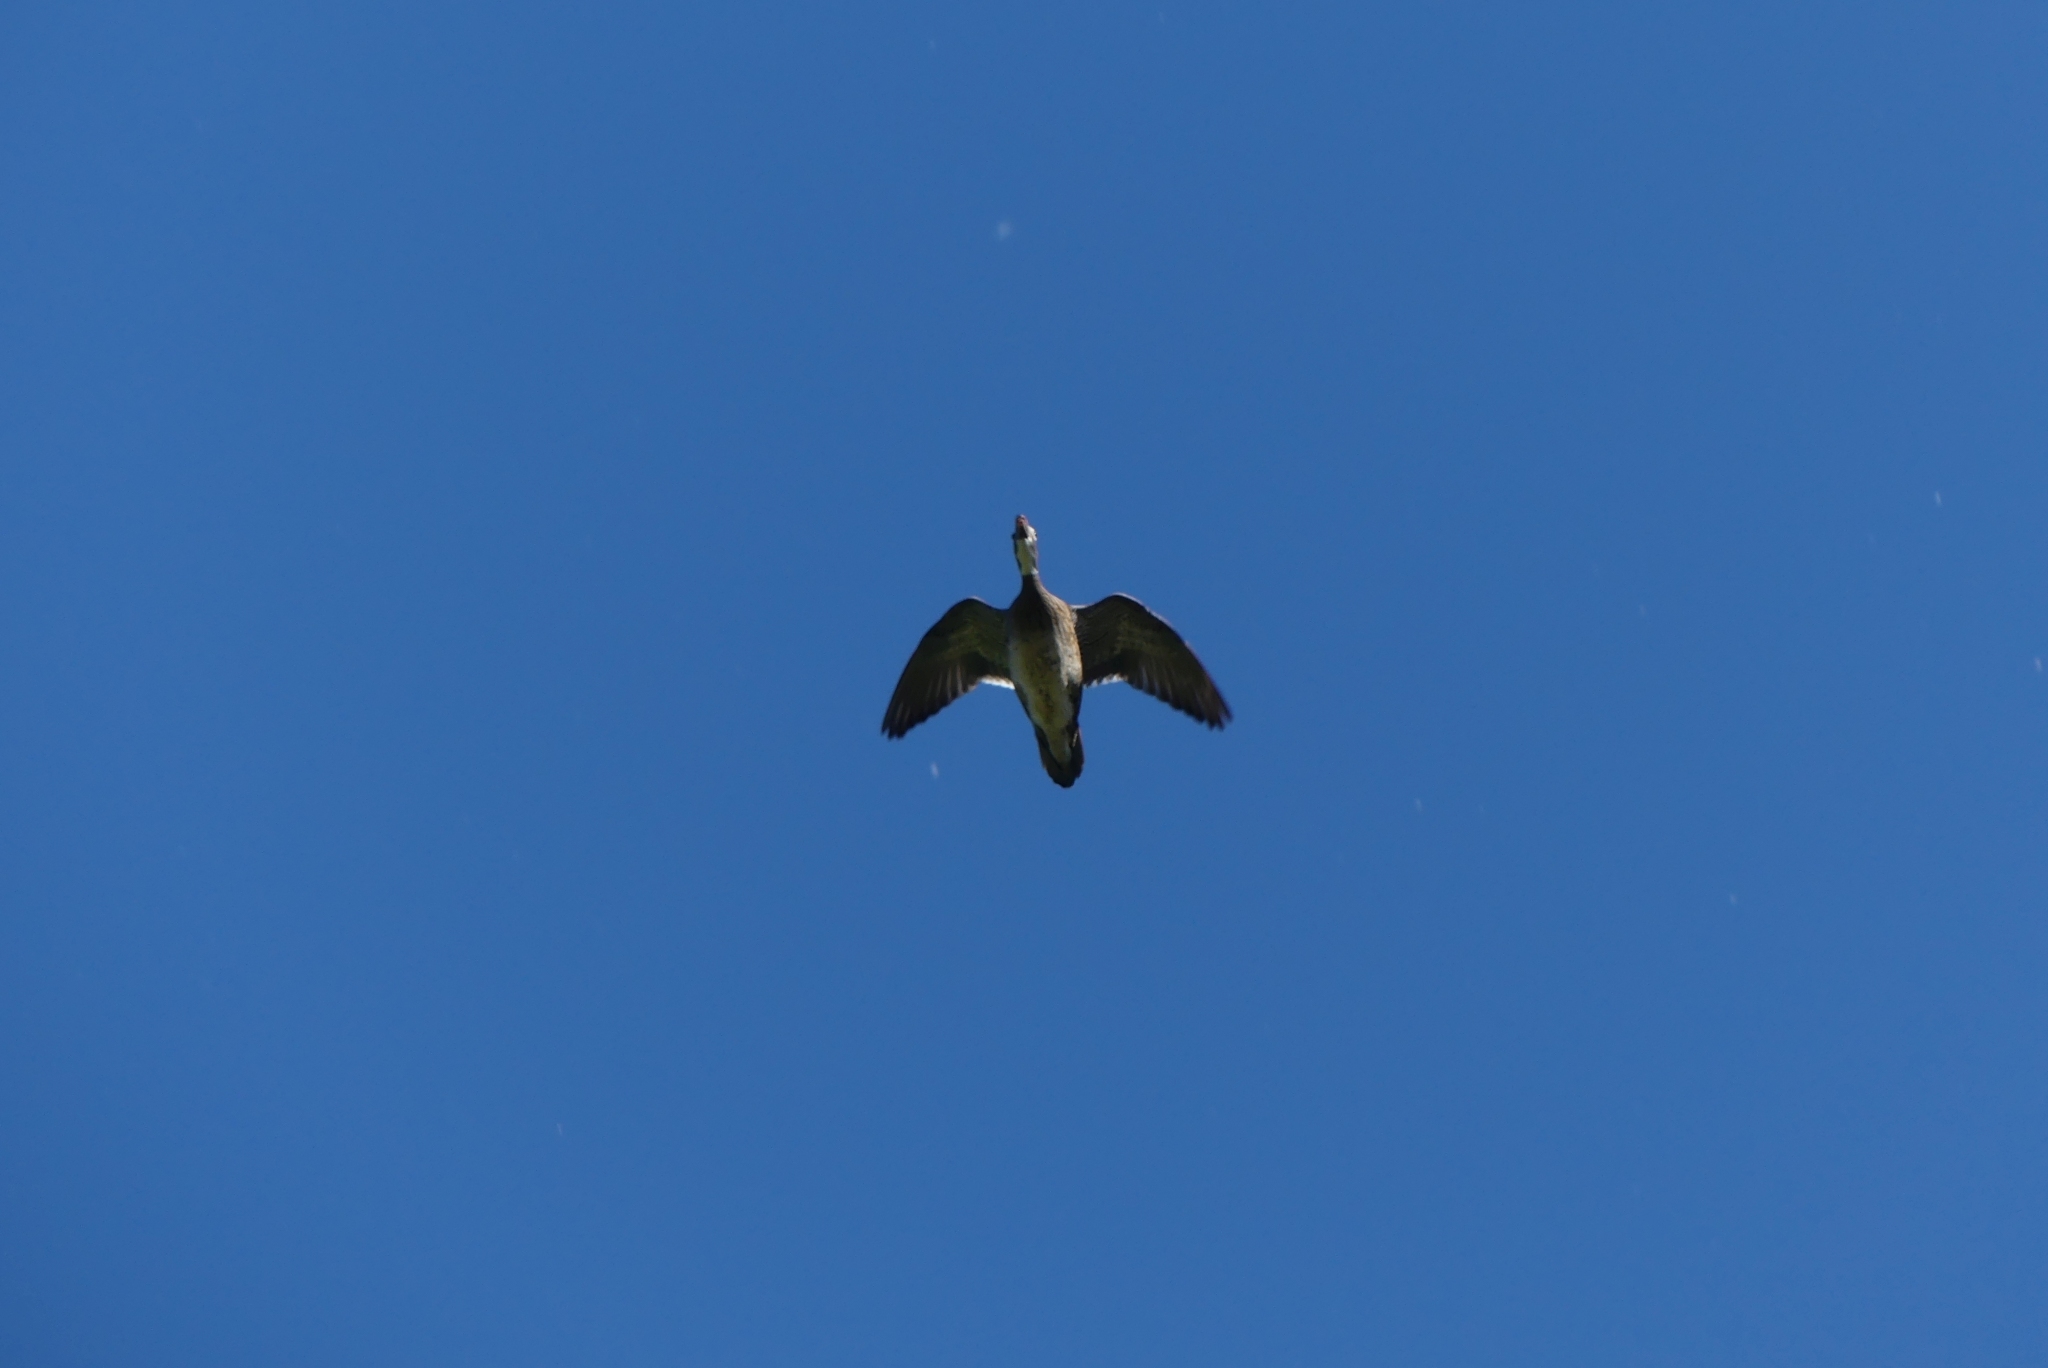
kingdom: Animalia
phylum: Chordata
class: Aves
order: Anseriformes
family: Anatidae
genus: Aix
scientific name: Aix sponsa
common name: Wood duck
